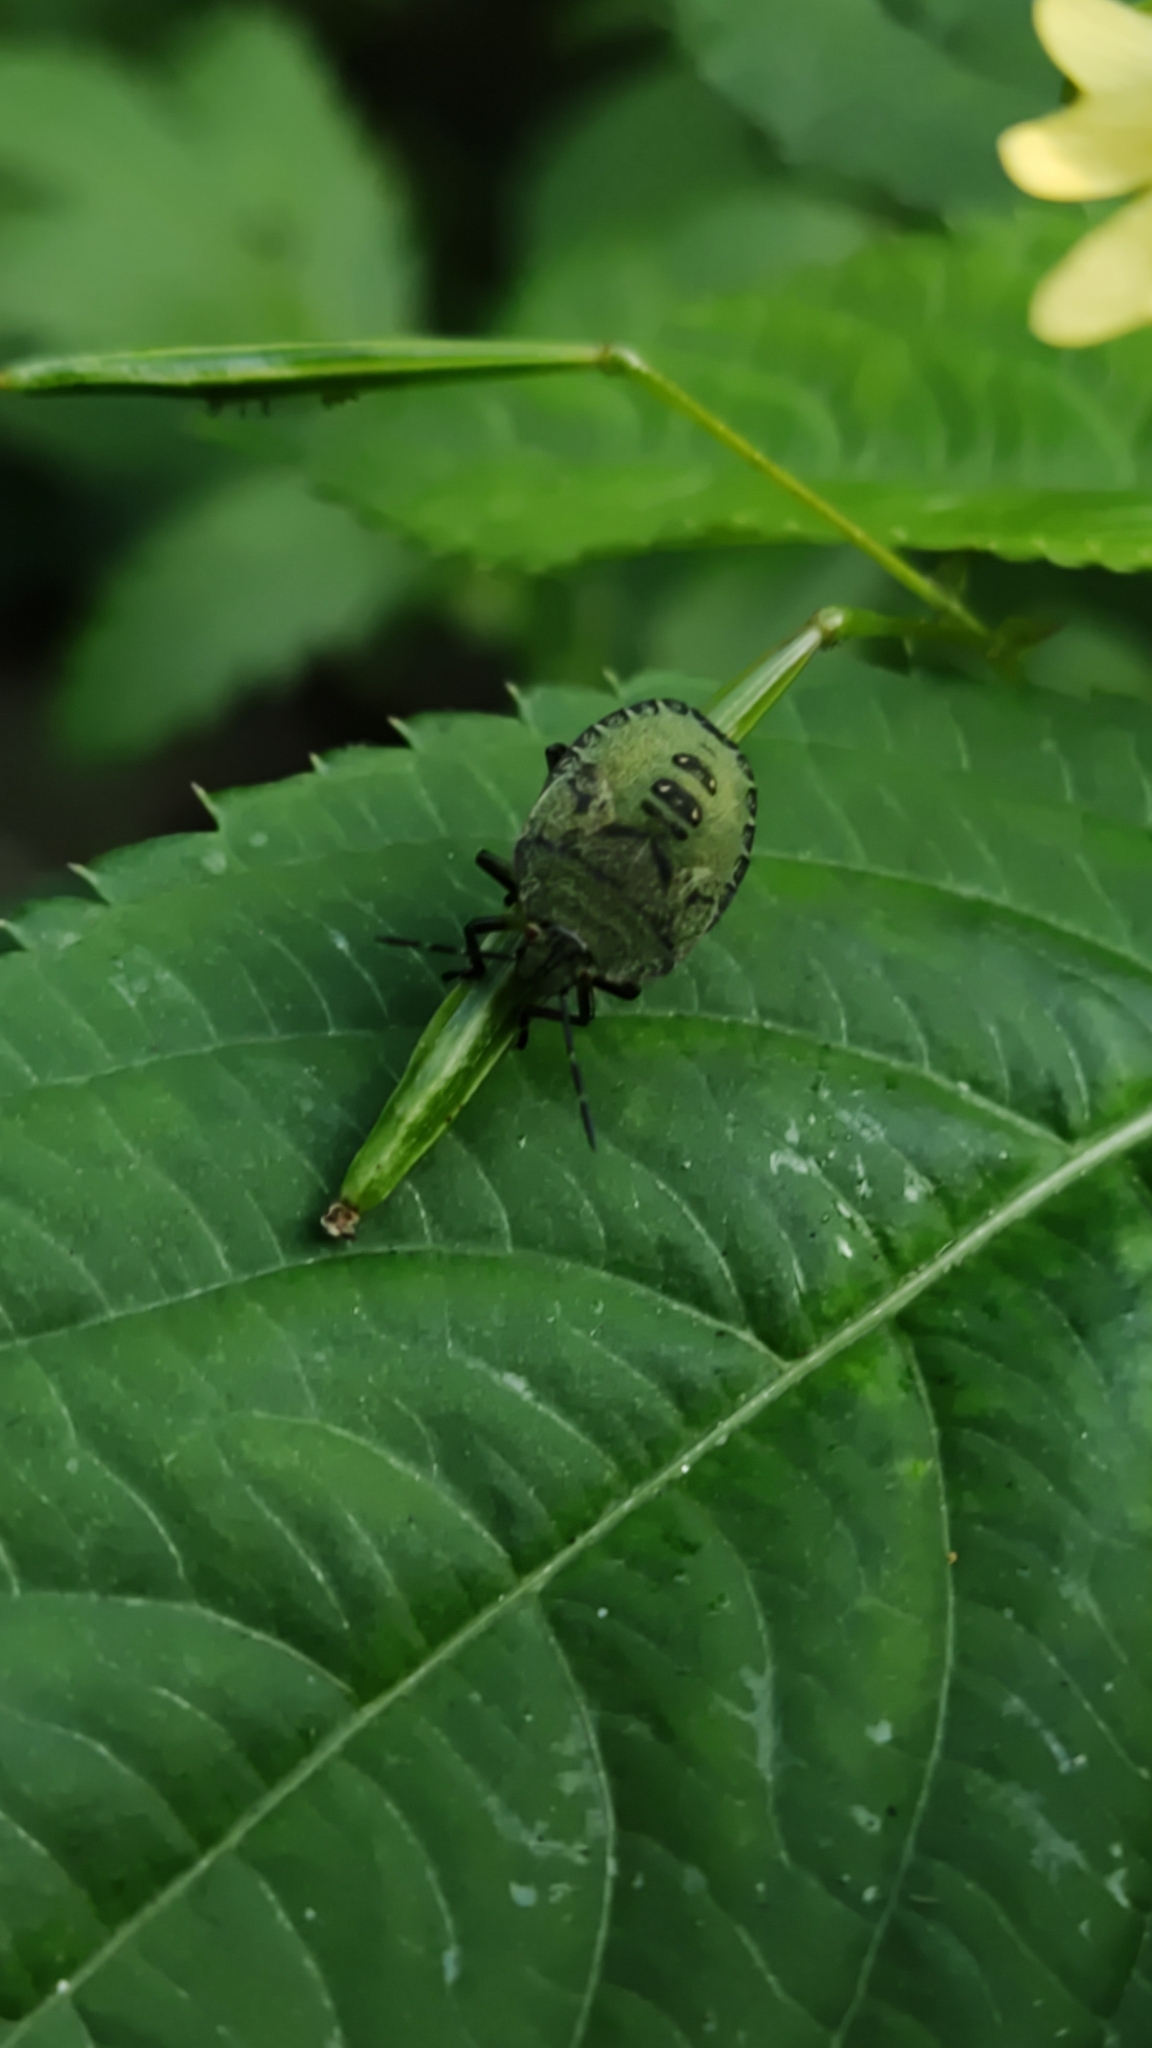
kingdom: Animalia
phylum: Arthropoda
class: Insecta
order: Hemiptera
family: Pentatomidae
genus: Palomena
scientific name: Palomena prasina
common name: Green shieldbug
